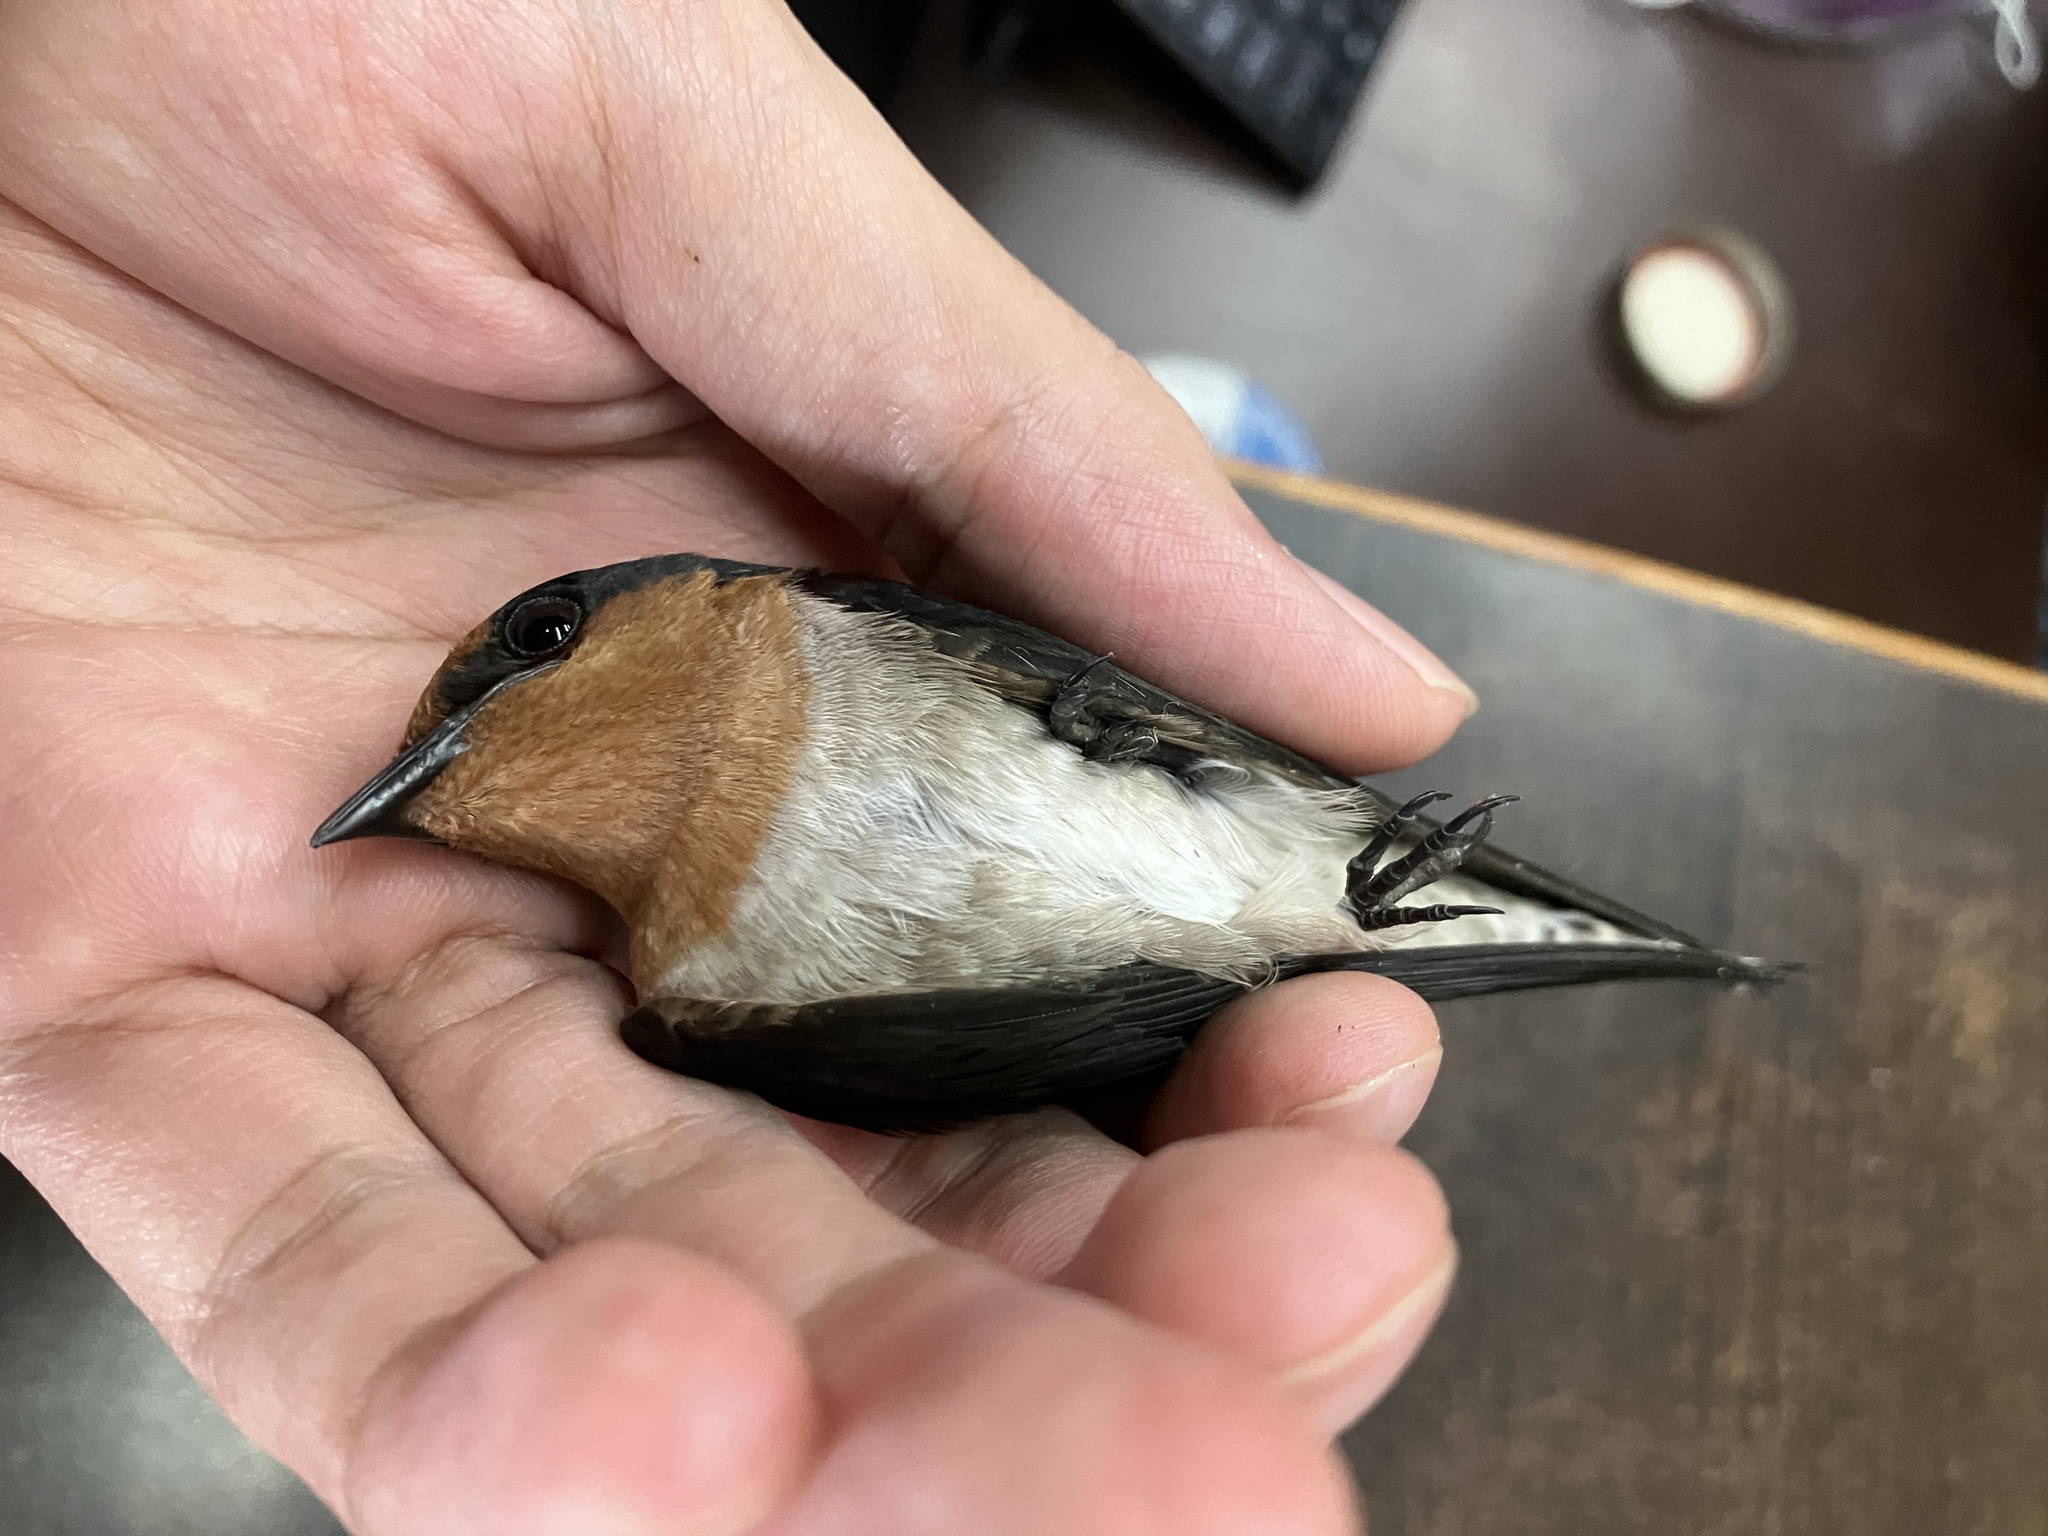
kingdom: Animalia
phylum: Chordata
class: Aves
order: Passeriformes
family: Hirundinidae
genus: Hirundo
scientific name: Hirundo tahitica
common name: Pacific swallow
